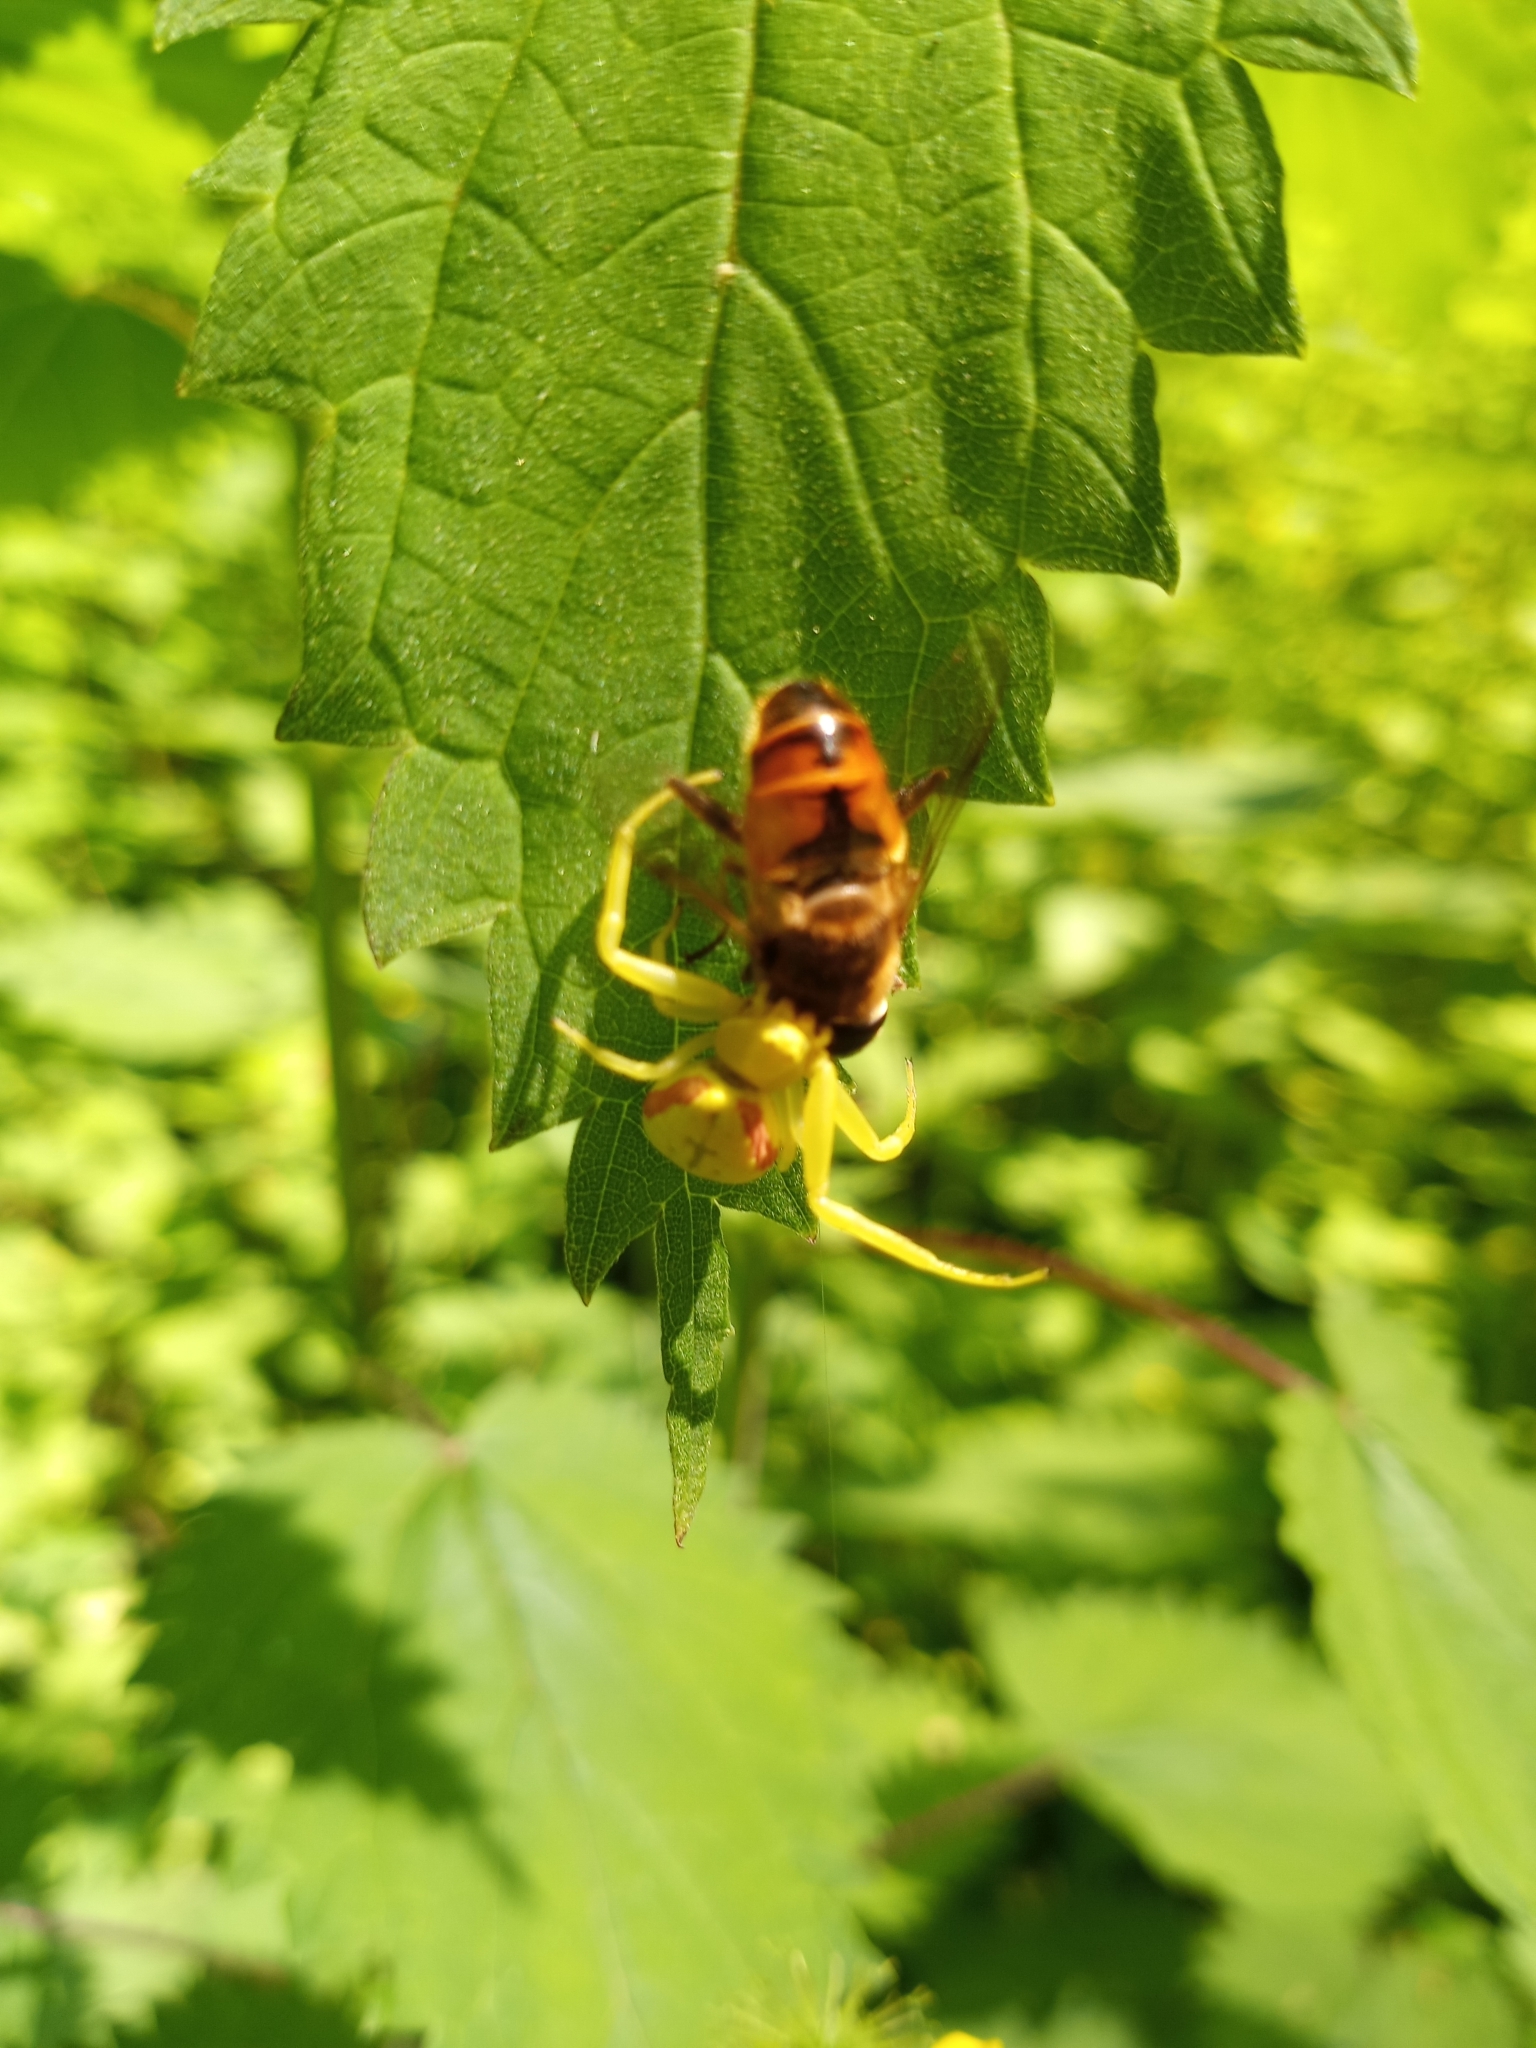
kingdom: Animalia
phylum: Arthropoda
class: Arachnida
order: Araneae
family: Thomisidae
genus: Misumena
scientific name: Misumena vatia
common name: Goldenrod crab spider
